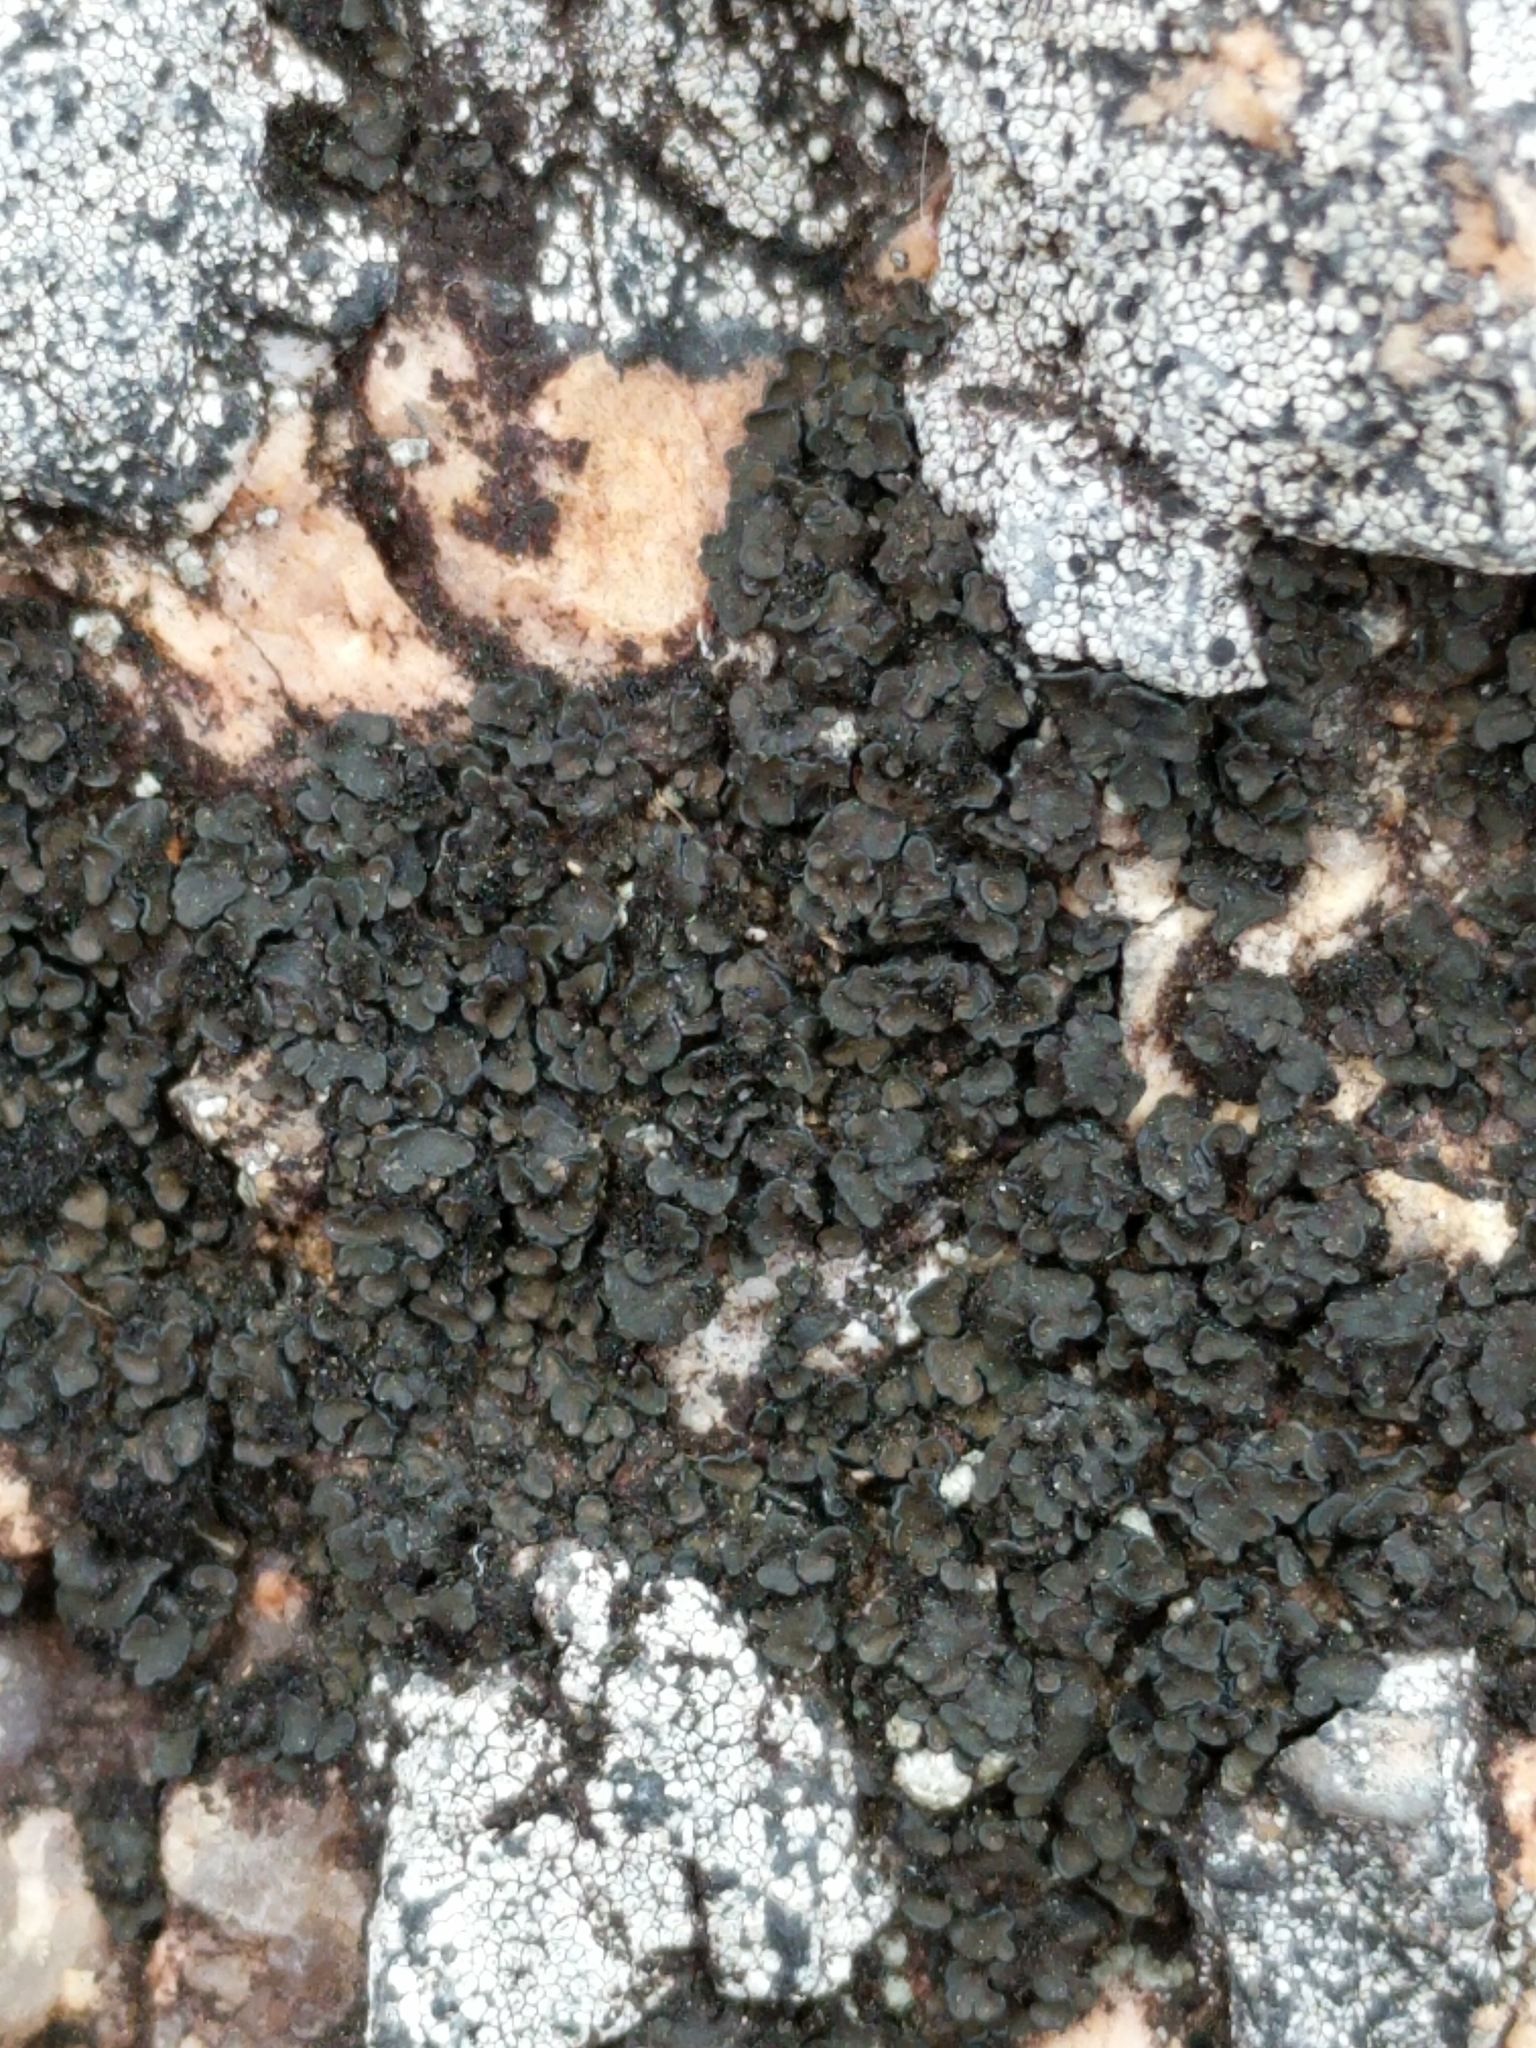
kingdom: Fungi
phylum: Ascomycota
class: Lecanoromycetes
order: Lecanorales
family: Psoraceae
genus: Psorula
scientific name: Psorula rufonigra
